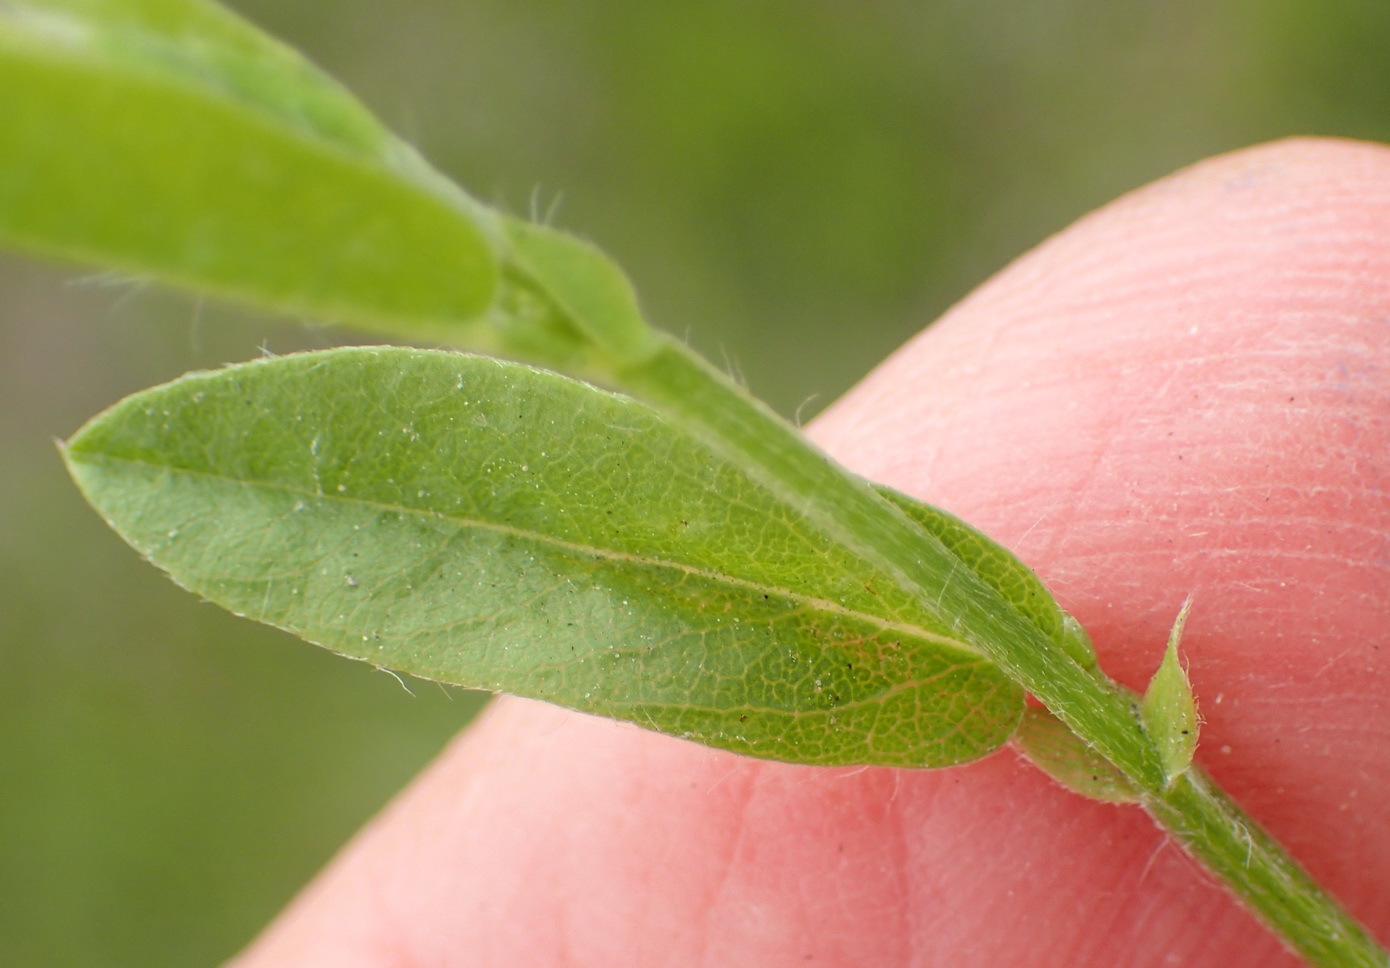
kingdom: Plantae
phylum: Tracheophyta
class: Magnoliopsida
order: Fabales
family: Fabaceae
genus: Psoralea
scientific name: Psoralea plauta
